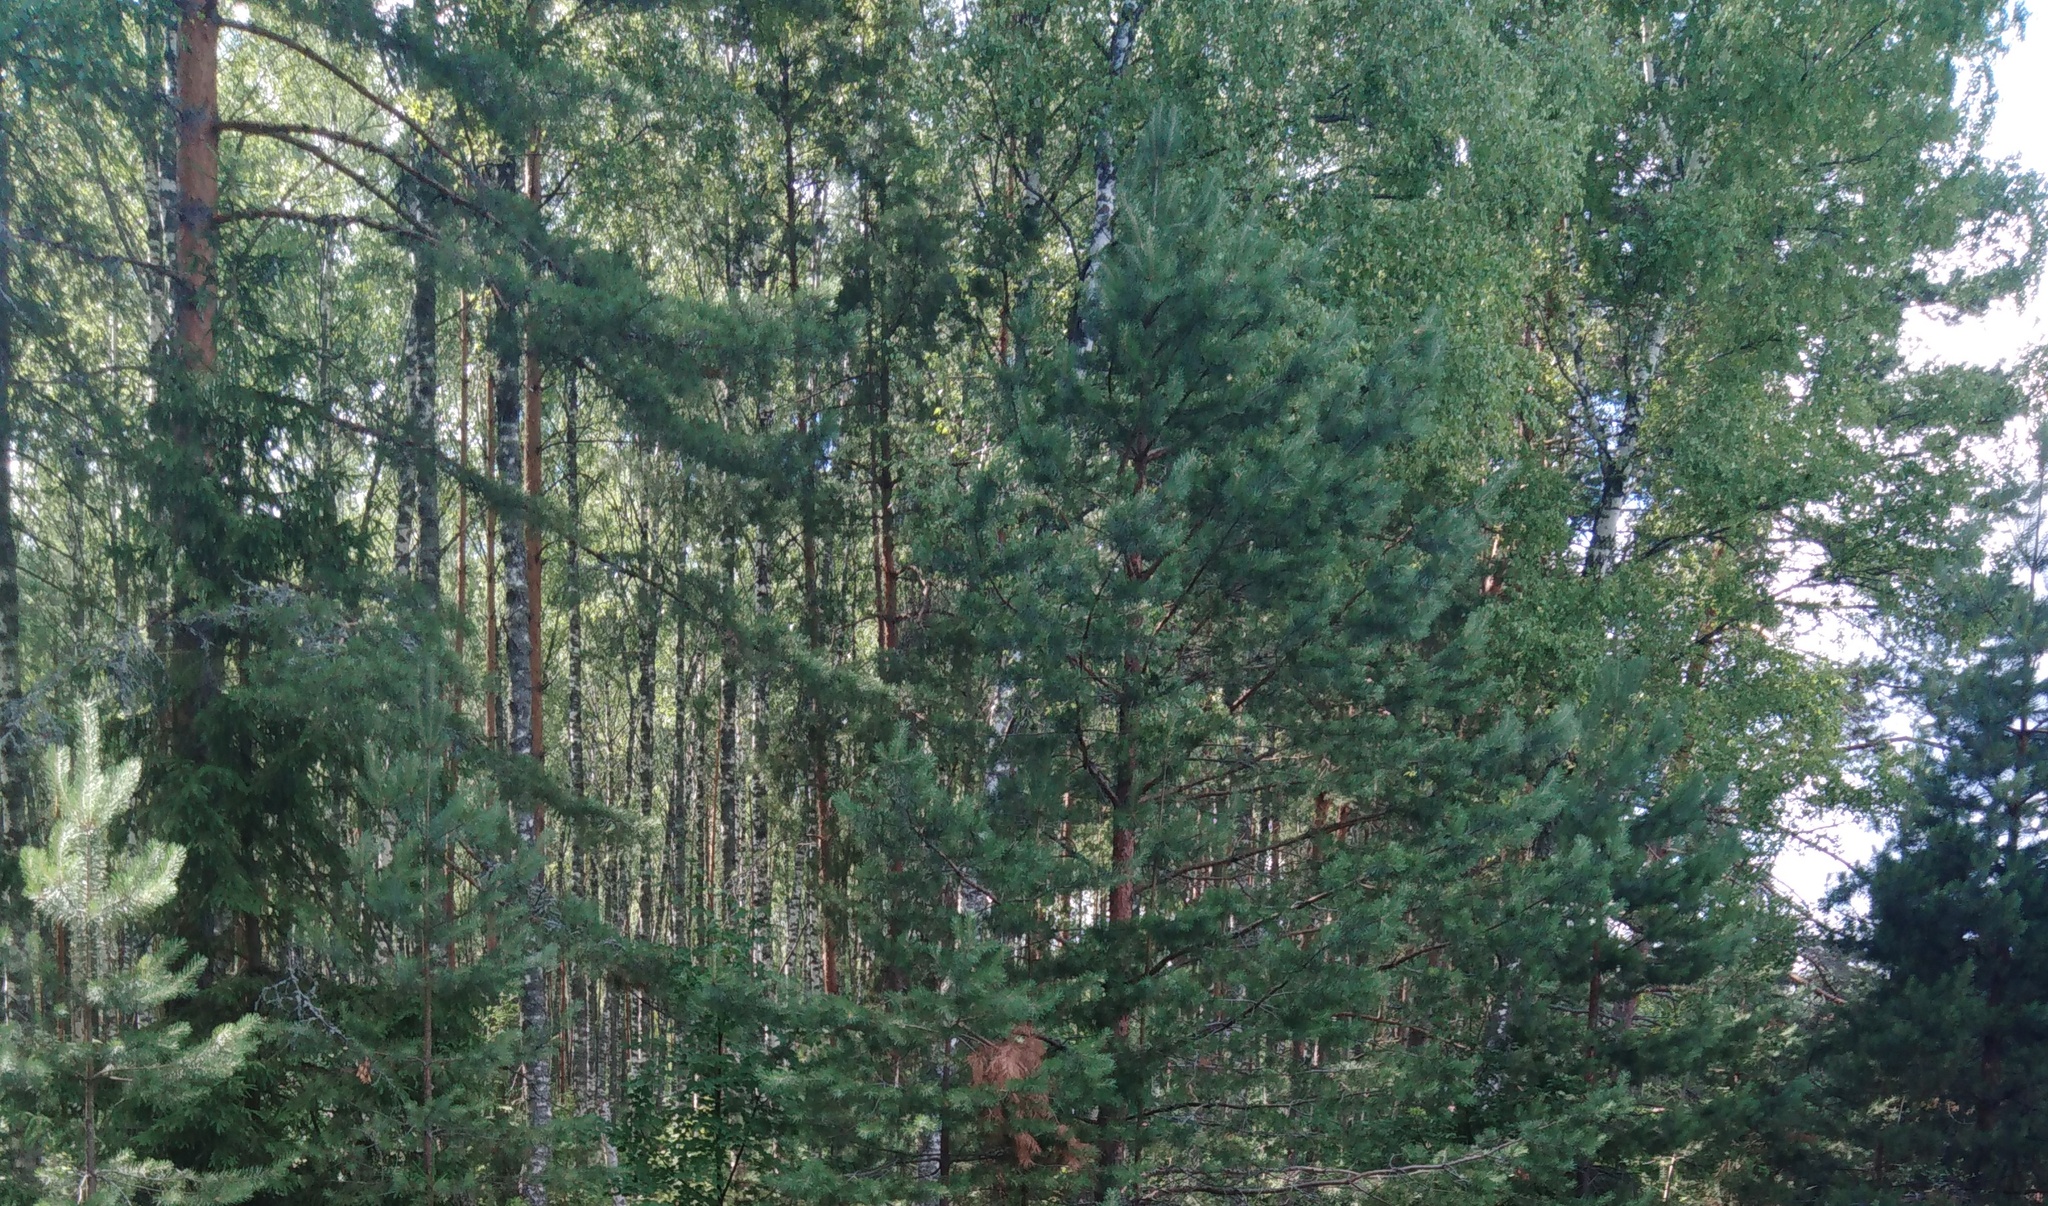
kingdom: Plantae
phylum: Tracheophyta
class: Pinopsida
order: Pinales
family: Pinaceae
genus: Pinus
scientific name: Pinus sylvestris
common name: Scots pine
